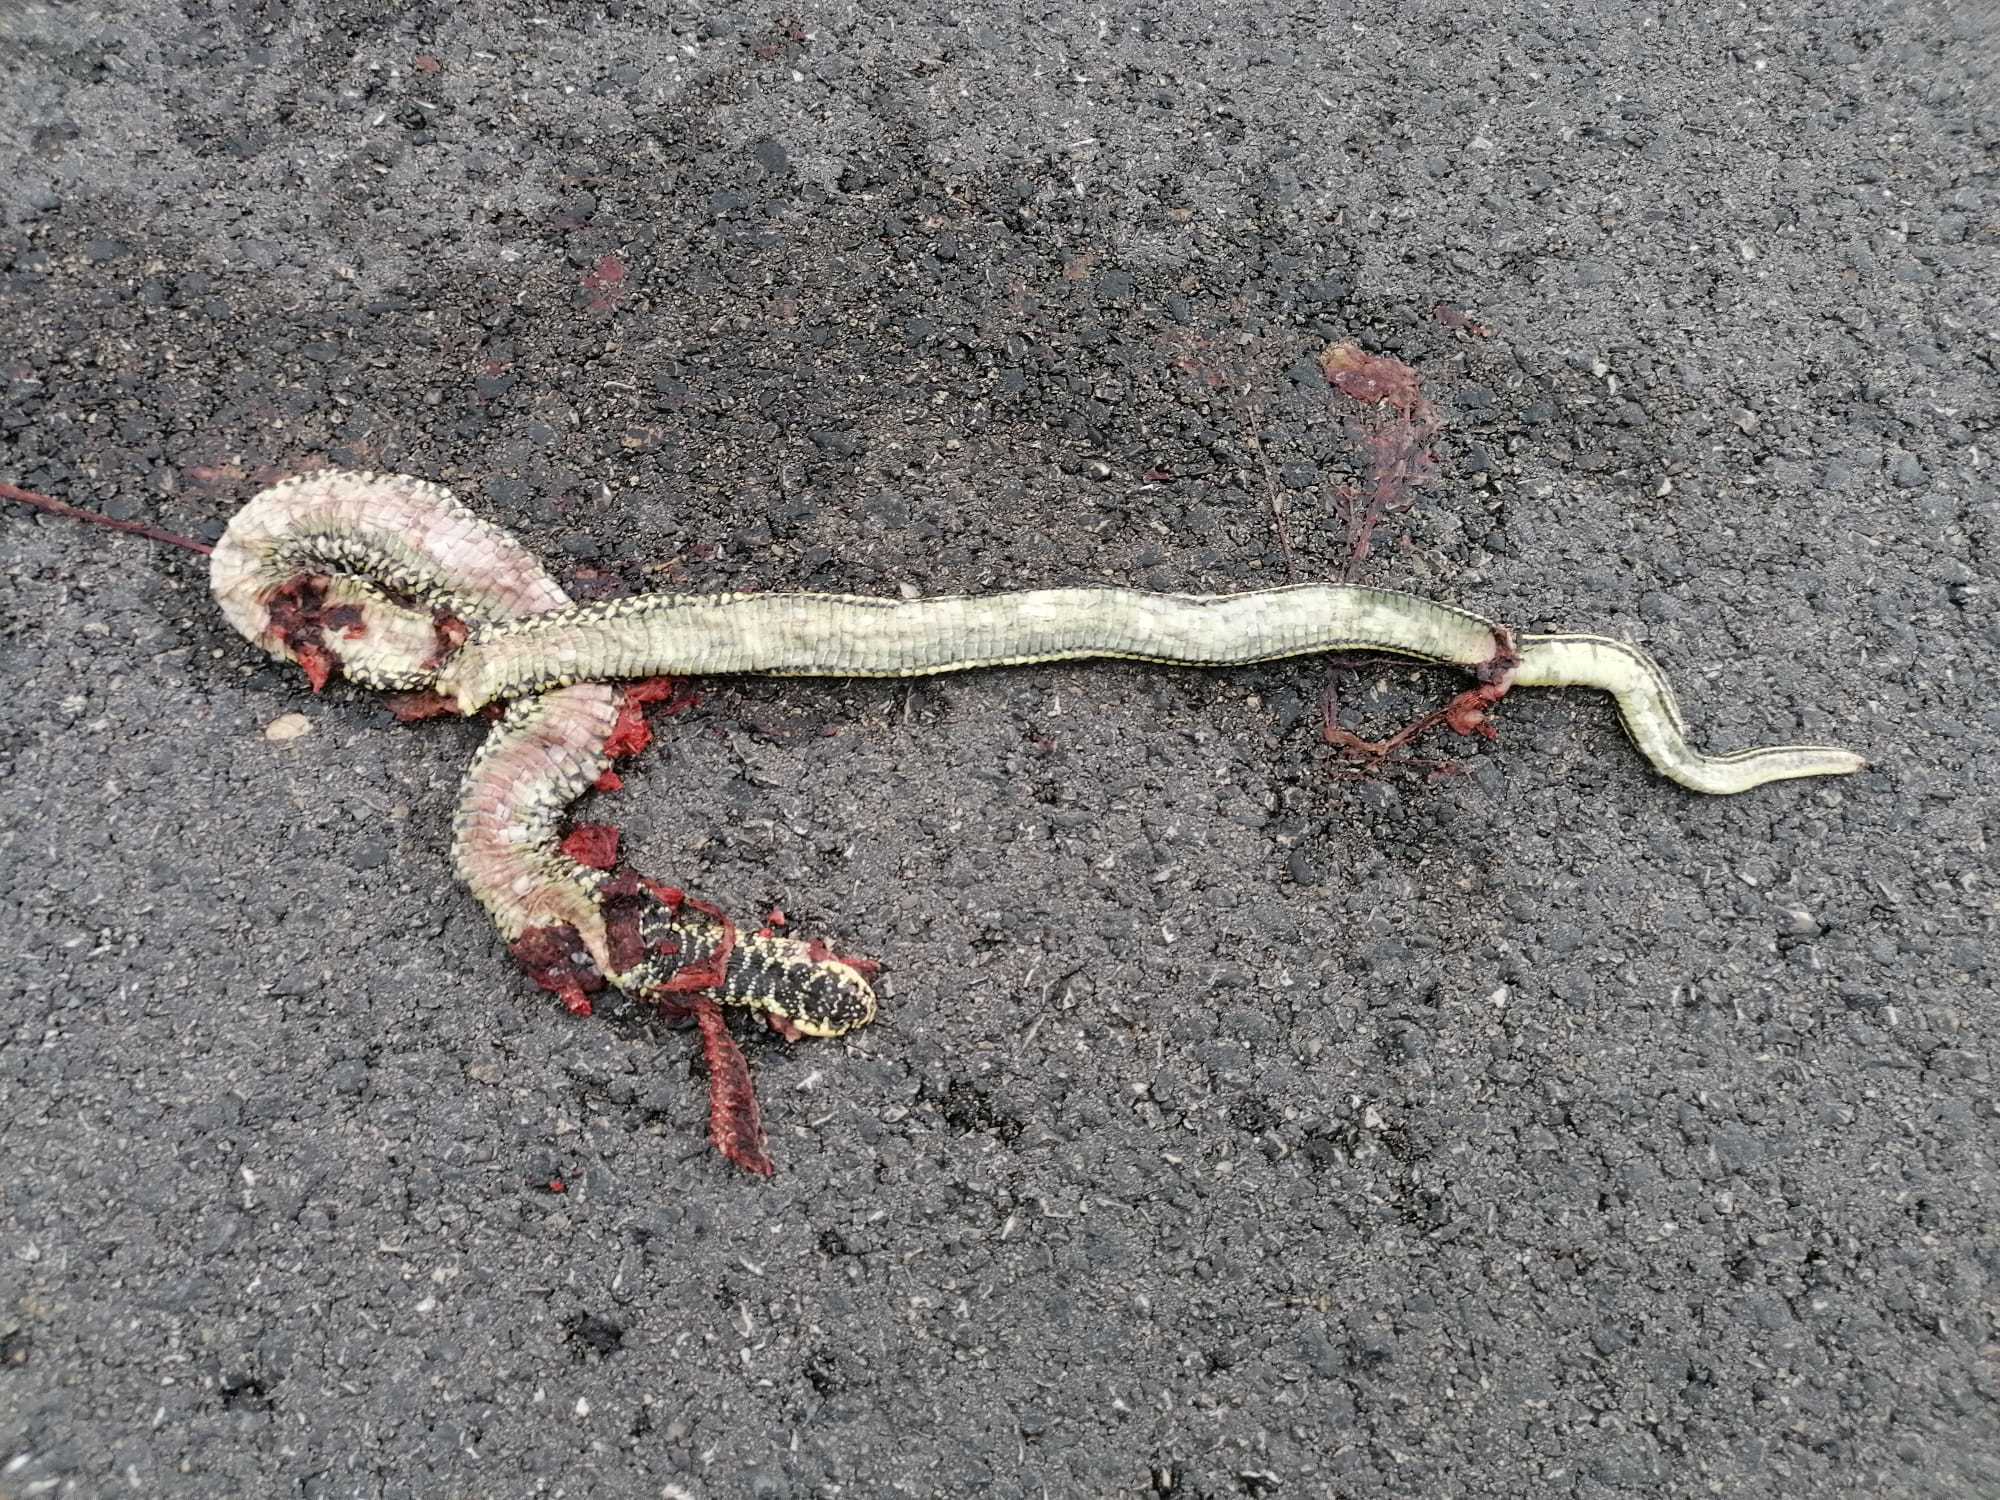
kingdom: Animalia
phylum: Chordata
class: Squamata
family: Colubridae
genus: Hierophis
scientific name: Hierophis viridiflavus
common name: Green whip snake
